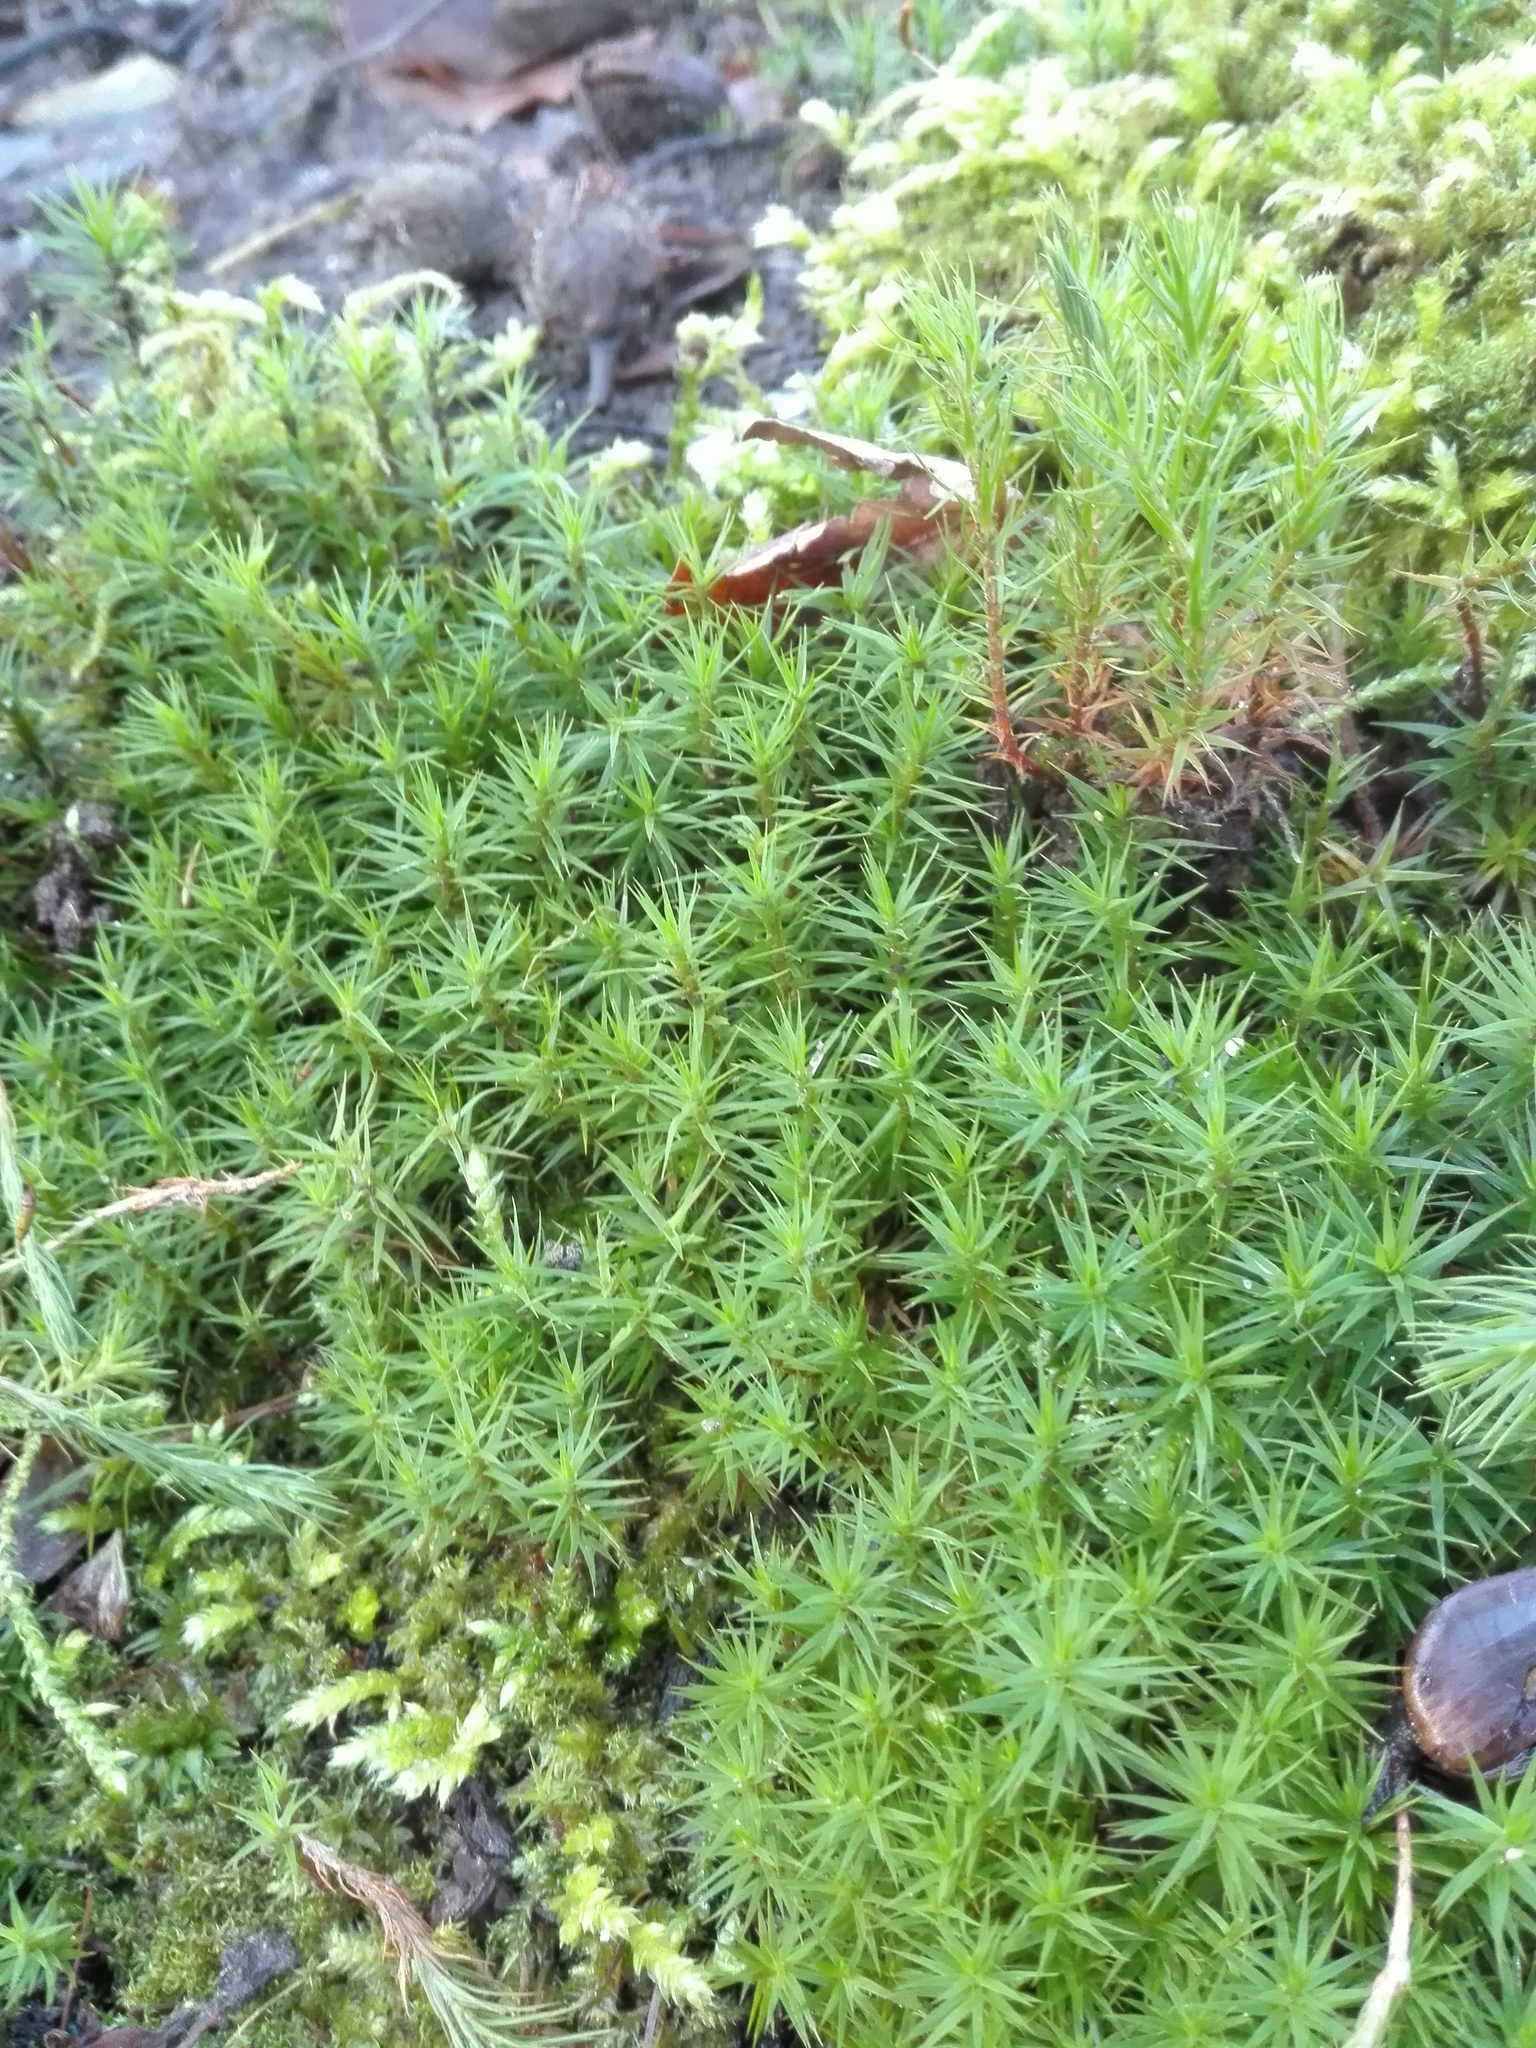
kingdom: Plantae
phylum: Bryophyta
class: Polytrichopsida
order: Polytrichales
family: Polytrichaceae
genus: Polytrichum
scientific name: Polytrichum formosum
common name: Bank haircap moss
